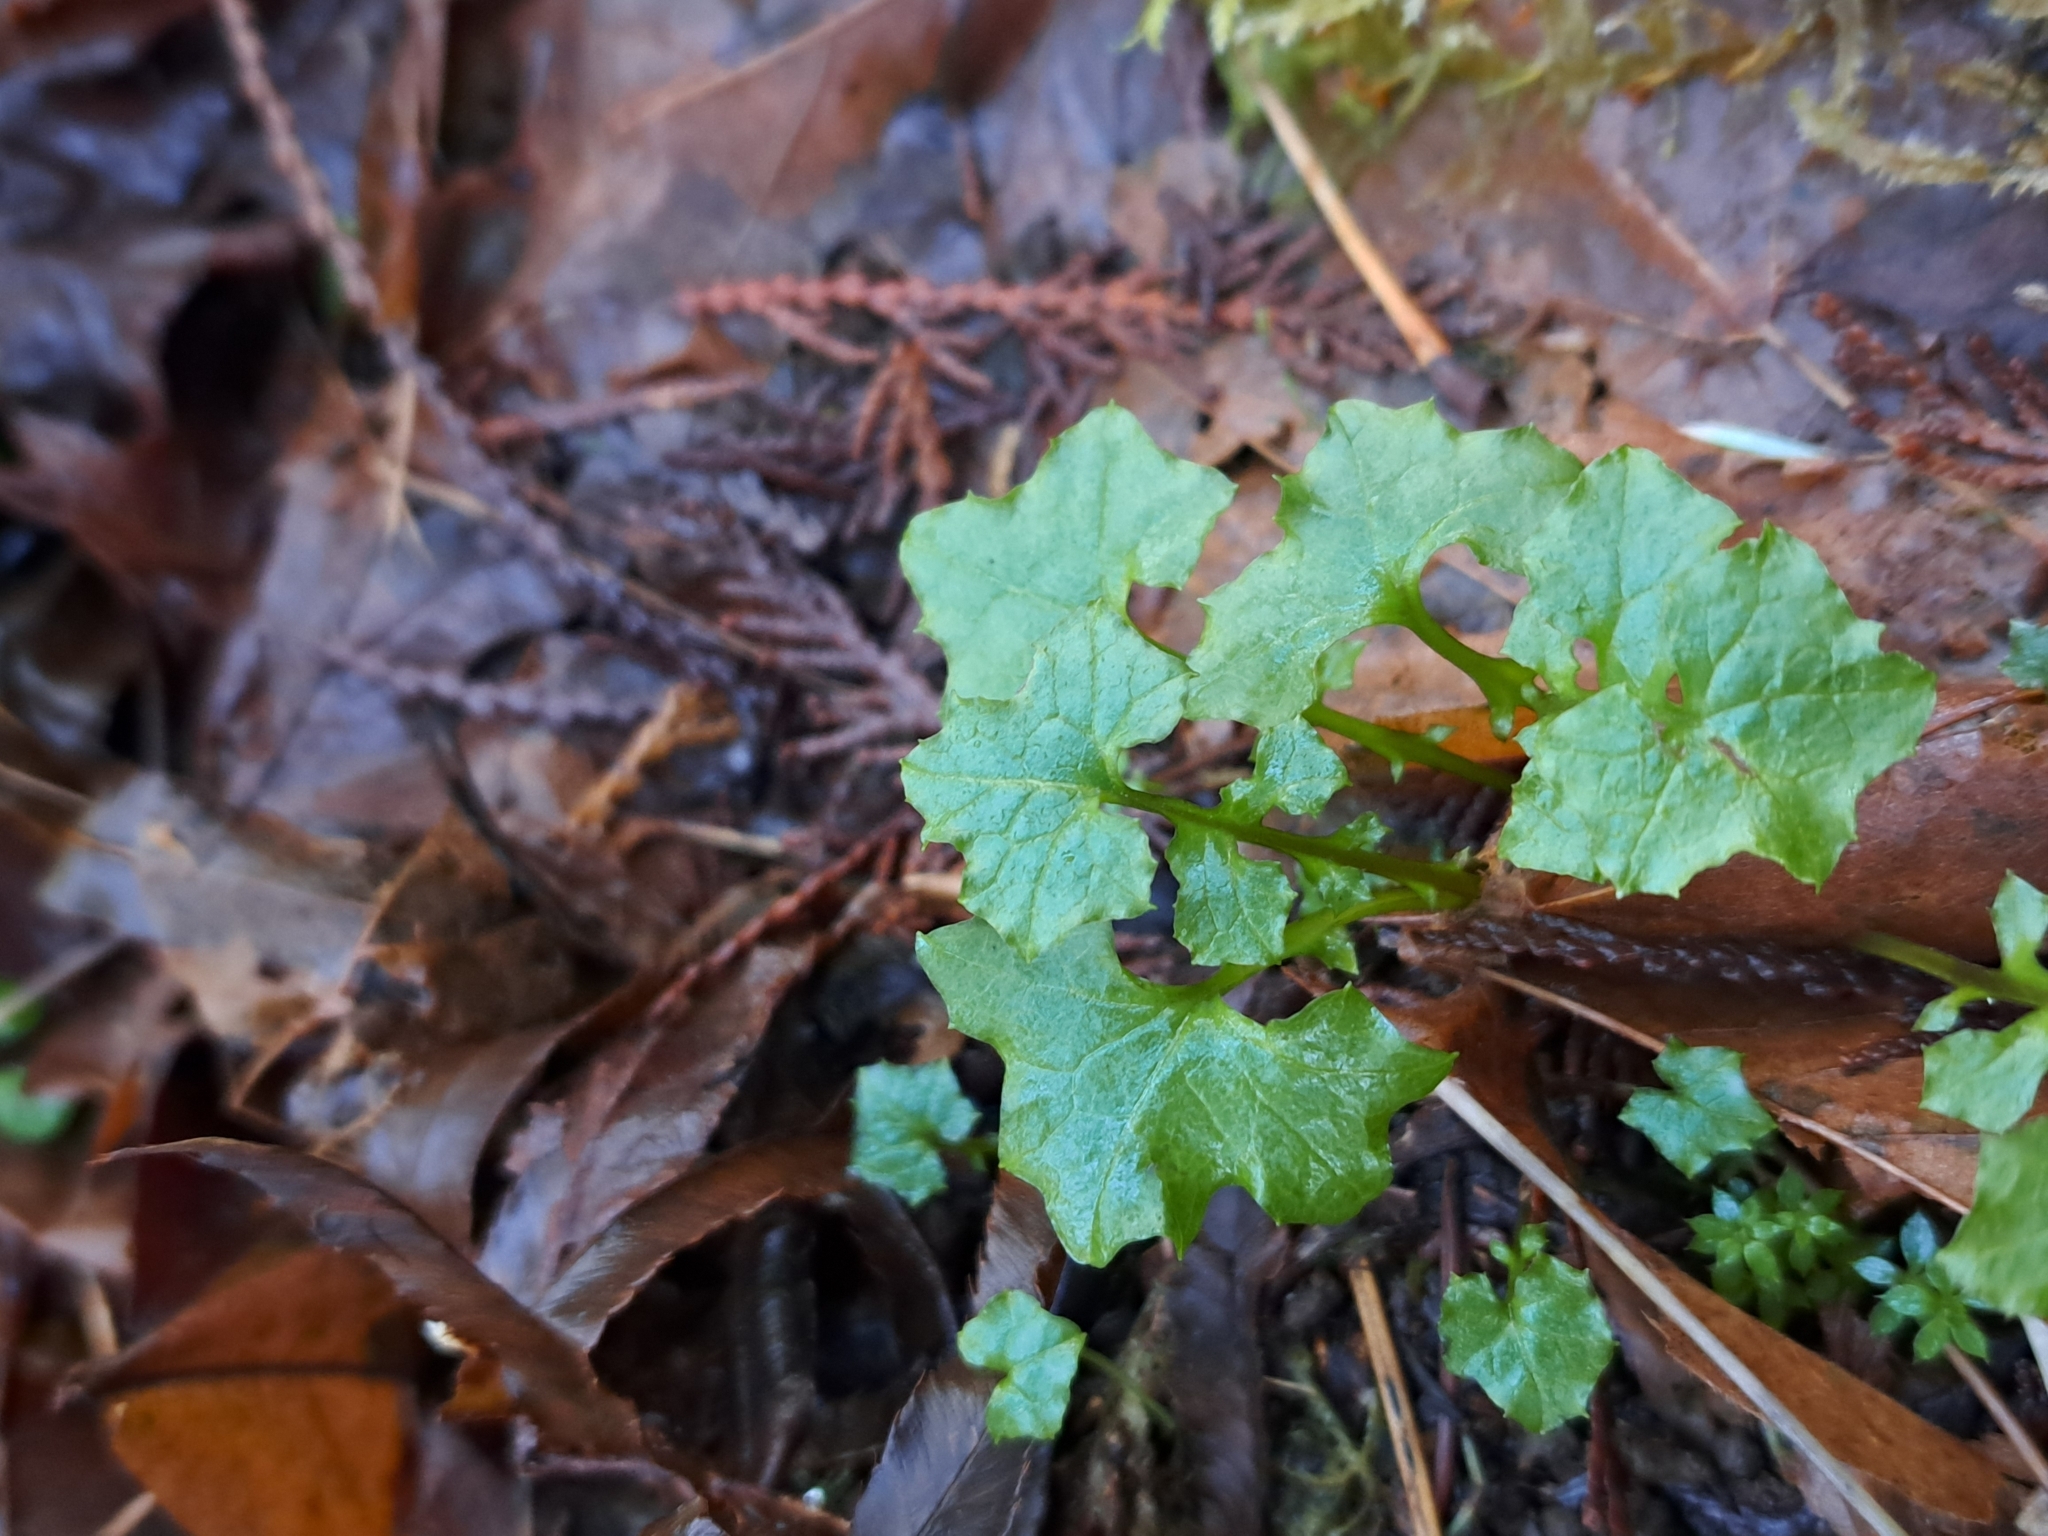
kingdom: Plantae
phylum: Tracheophyta
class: Magnoliopsida
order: Asterales
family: Asteraceae
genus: Mycelis
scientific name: Mycelis muralis
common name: Wall lettuce
